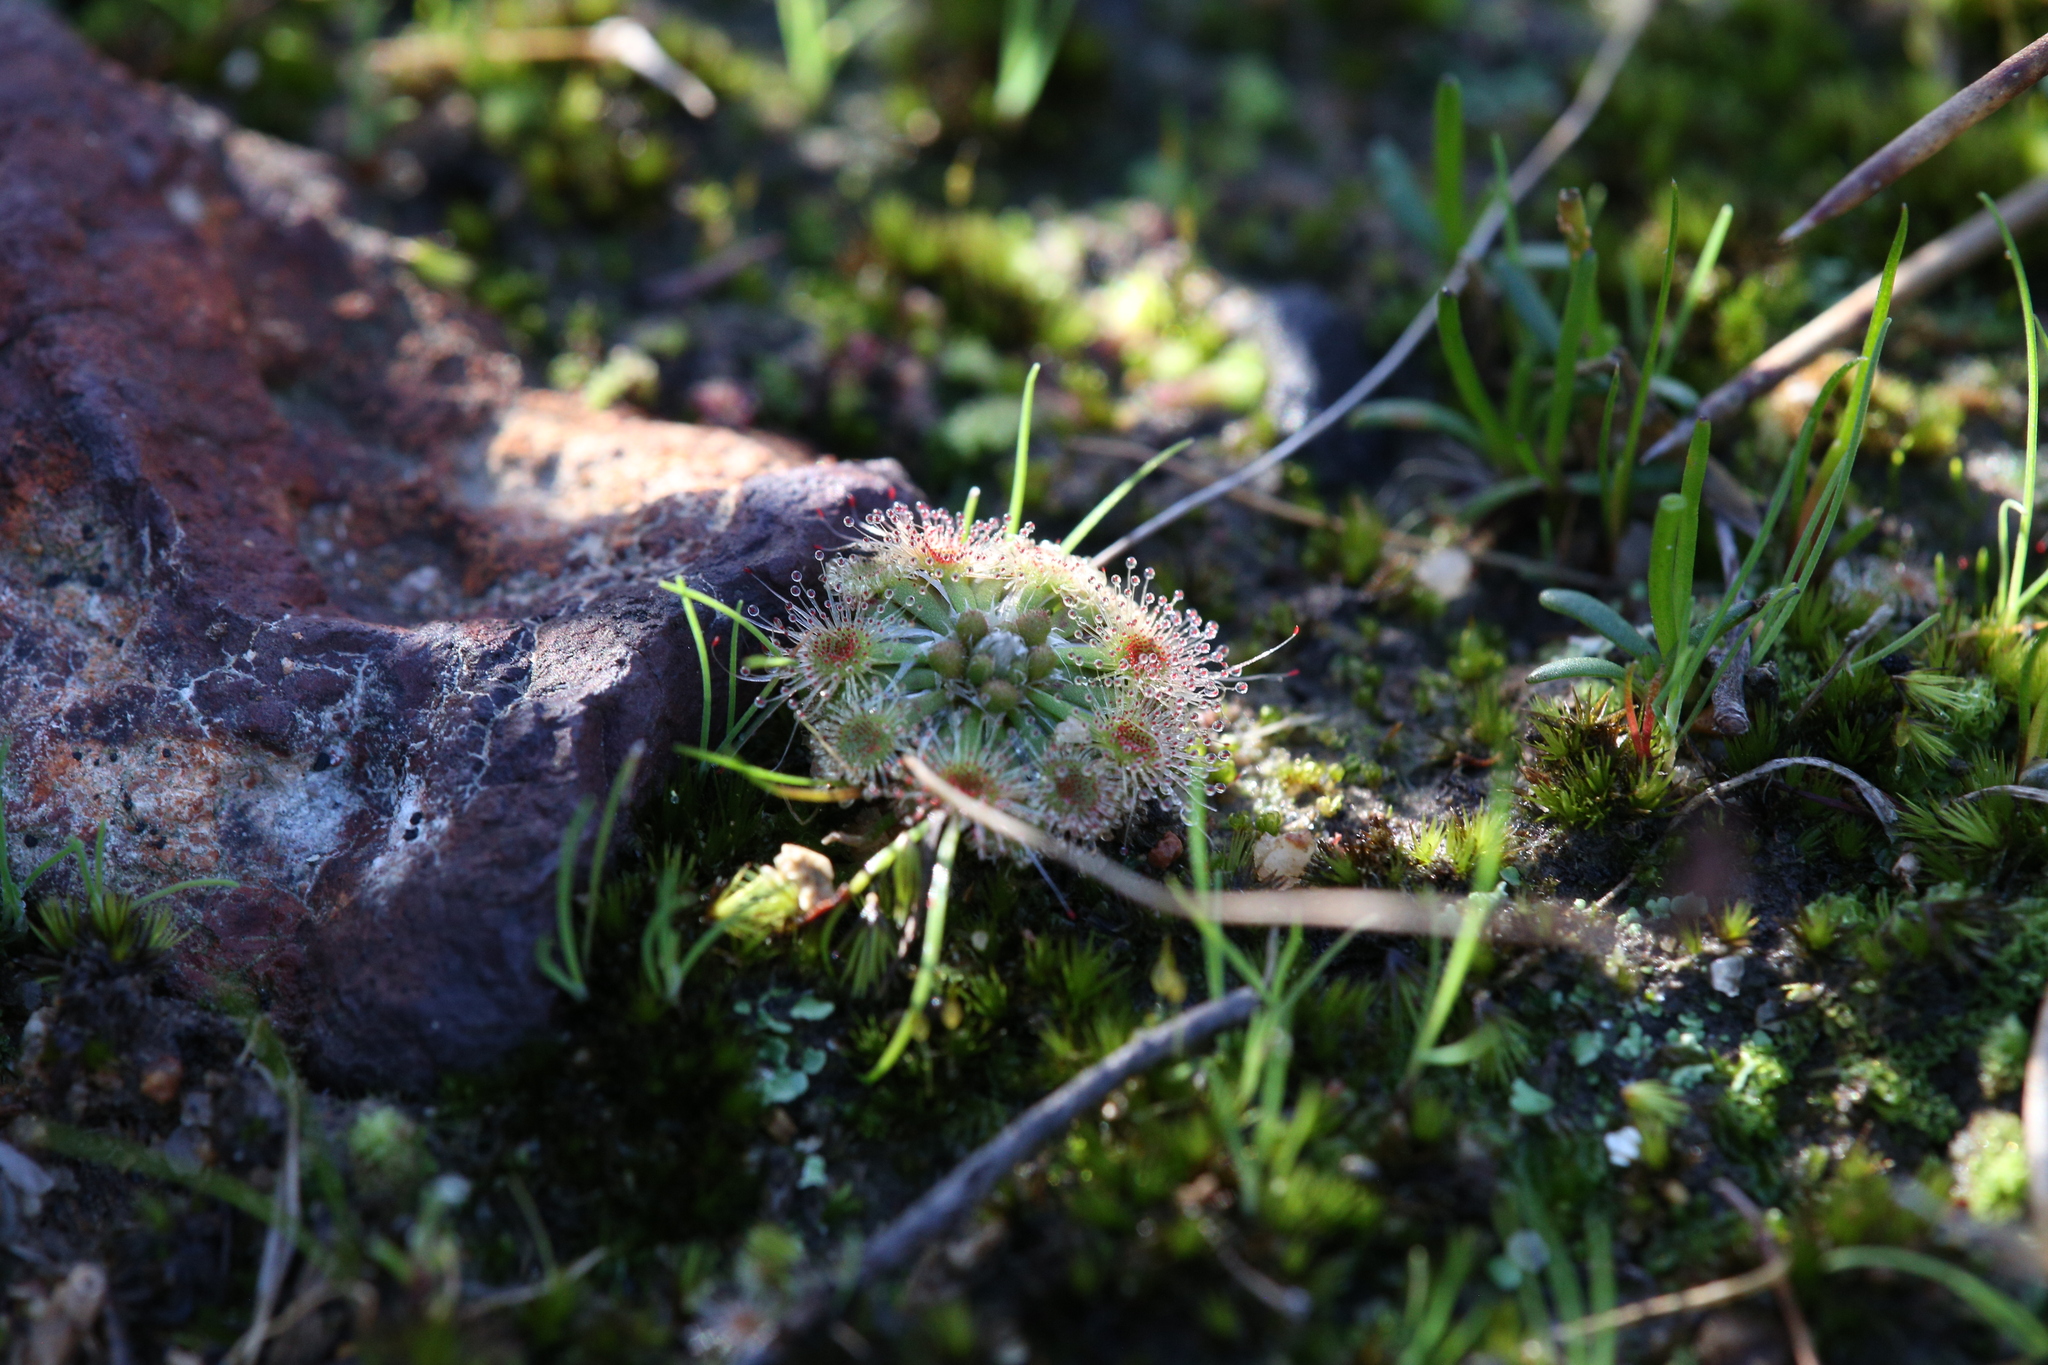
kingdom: Plantae
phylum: Tracheophyta
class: Magnoliopsida
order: Caryophyllales
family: Droseraceae
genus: Drosera
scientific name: Drosera miniata
